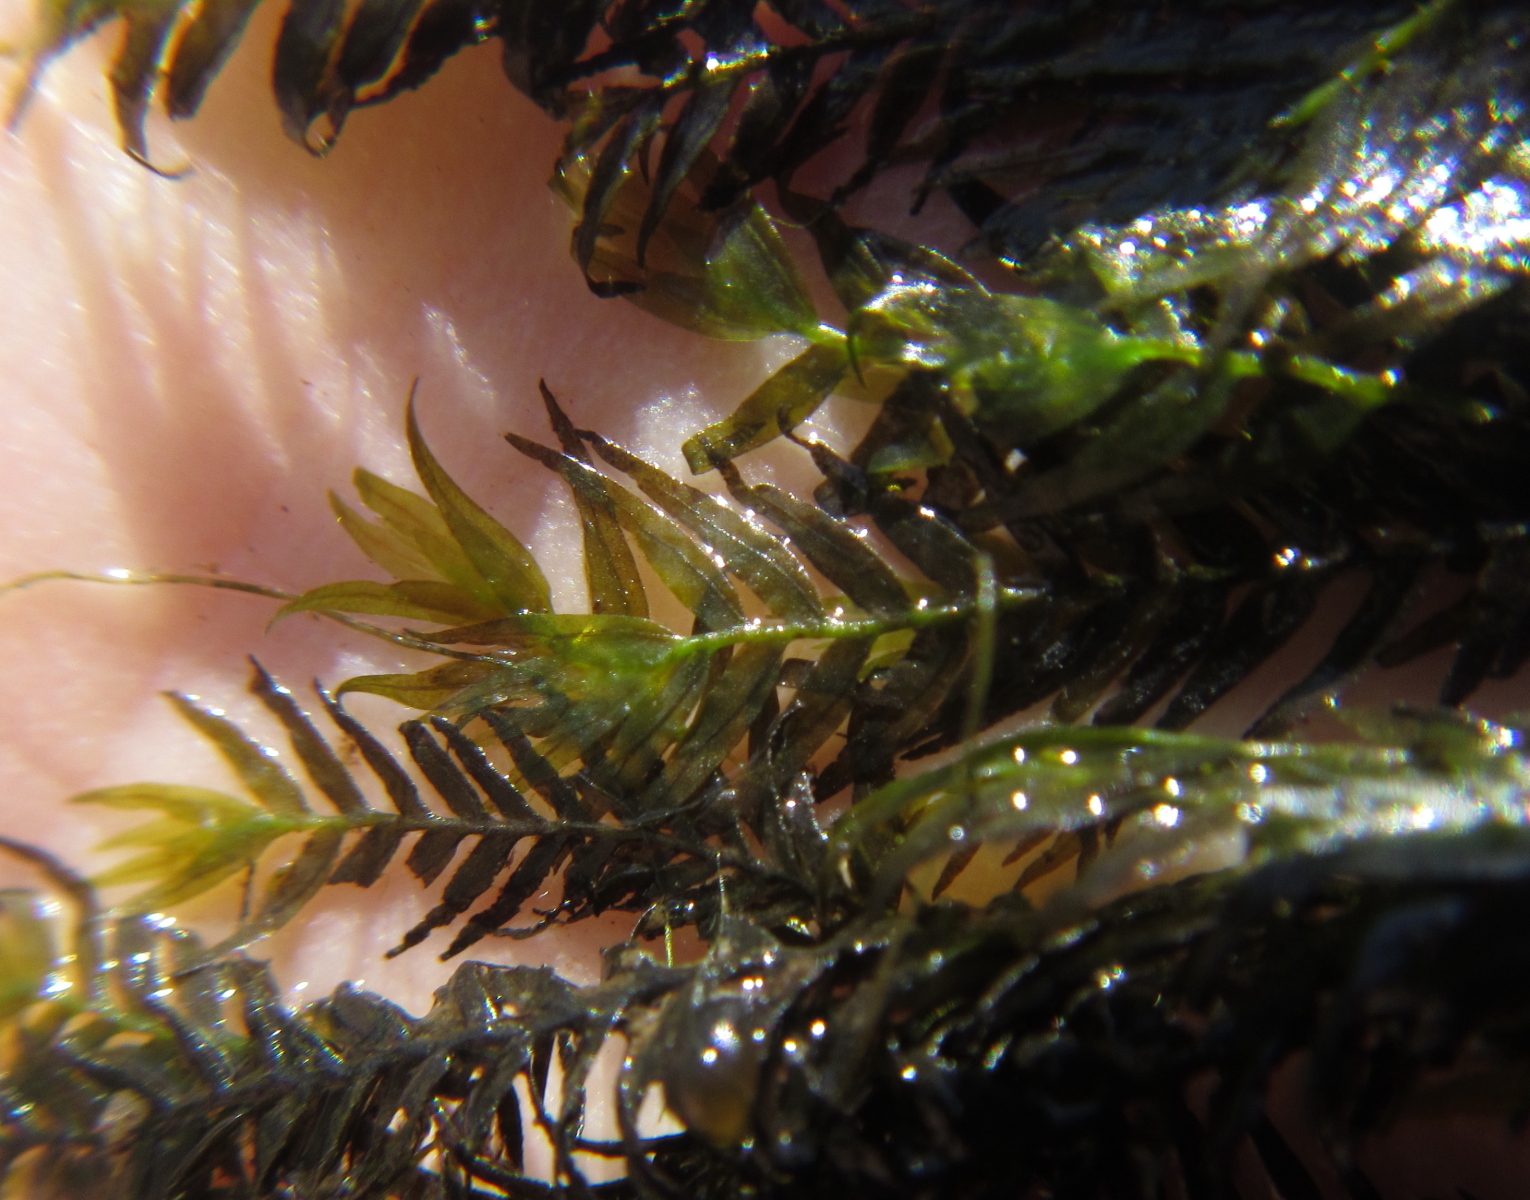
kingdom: Plantae
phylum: Bryophyta
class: Bryopsida
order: Dicranales
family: Fissidentaceae
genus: Fissidens
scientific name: Fissidens fontanus
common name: Fountain pocket-moss
